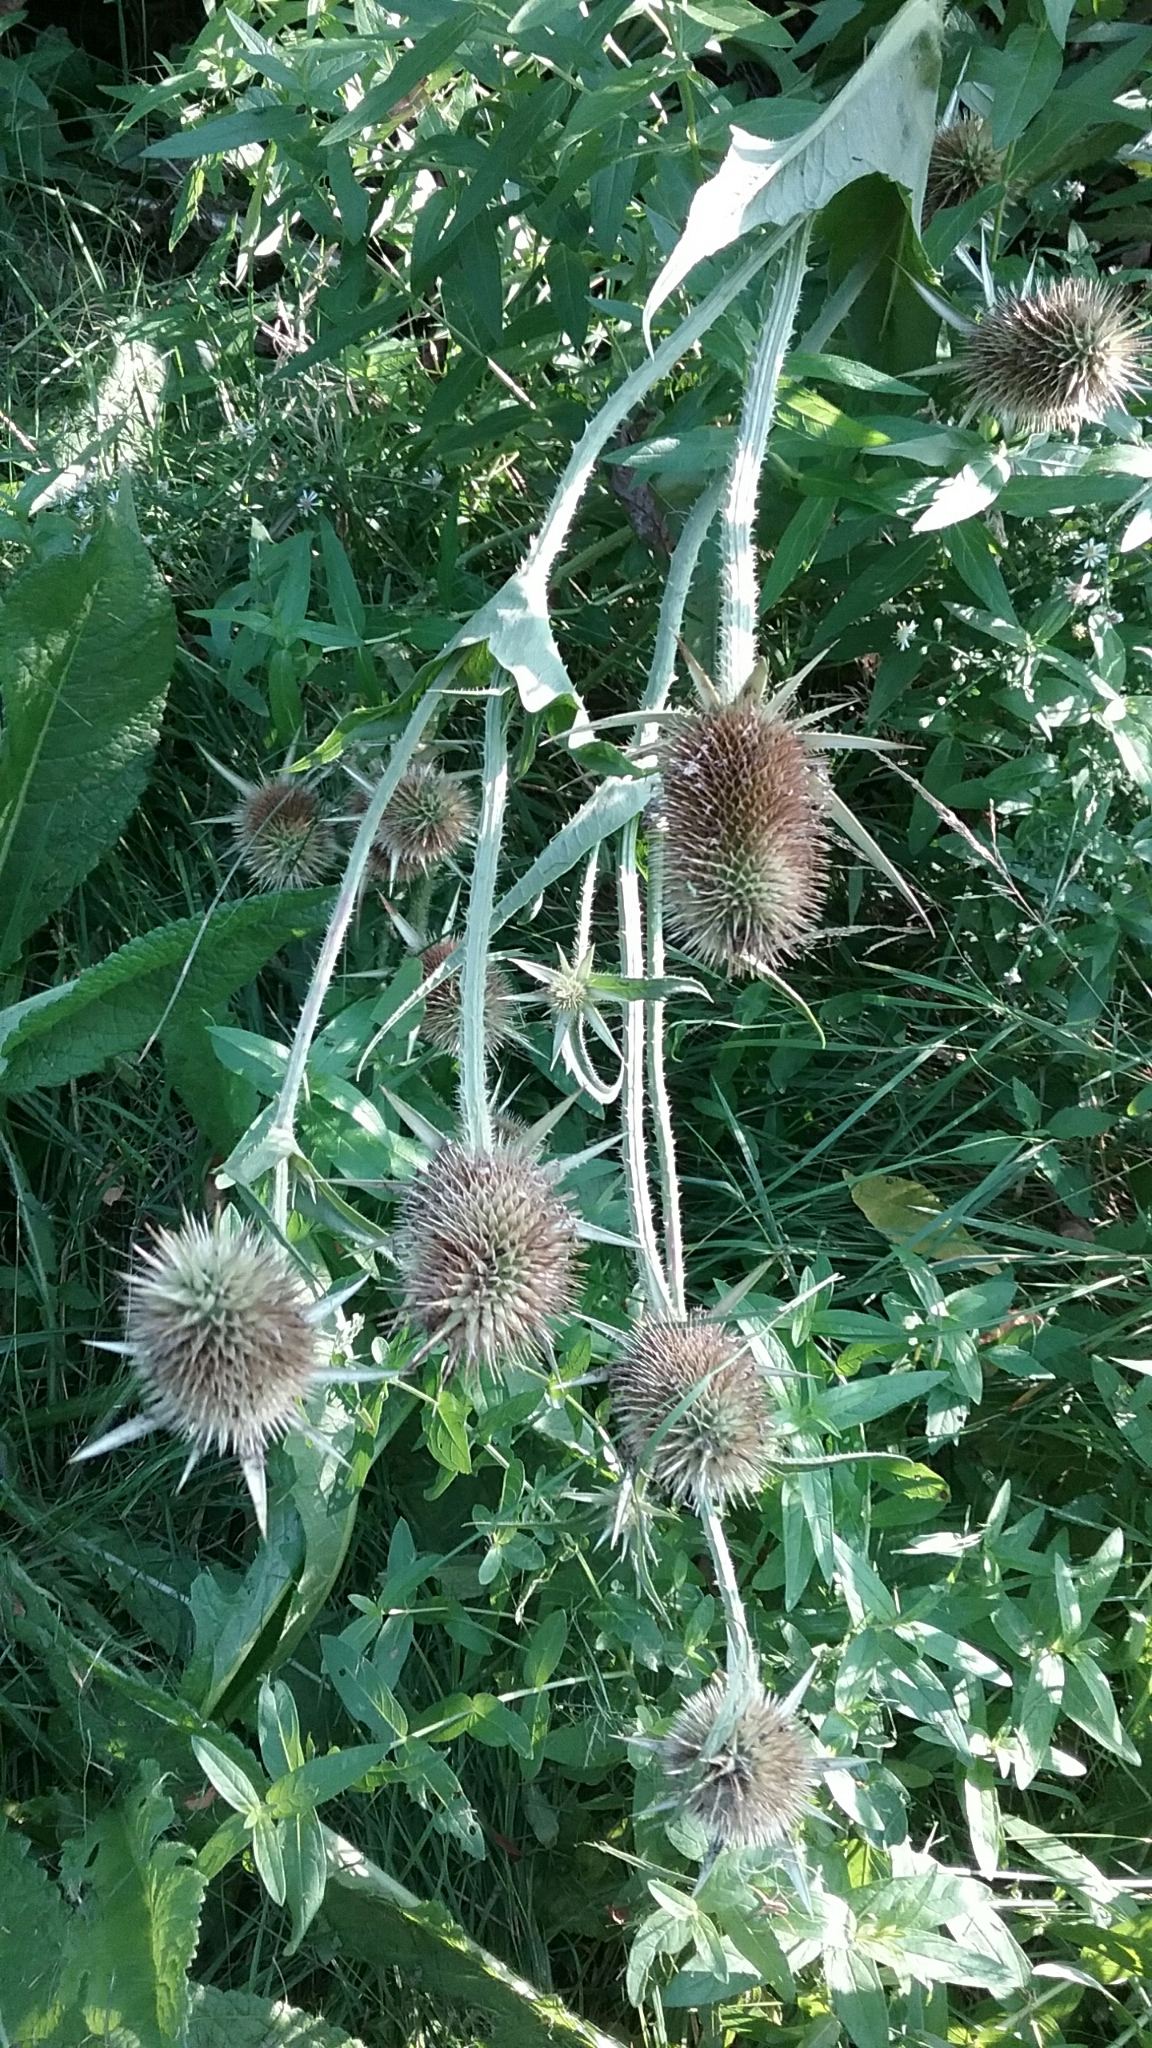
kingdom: Plantae
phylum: Tracheophyta
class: Magnoliopsida
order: Dipsacales
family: Caprifoliaceae
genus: Dipsacus
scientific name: Dipsacus laciniatus
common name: Cut-leaved teasel
